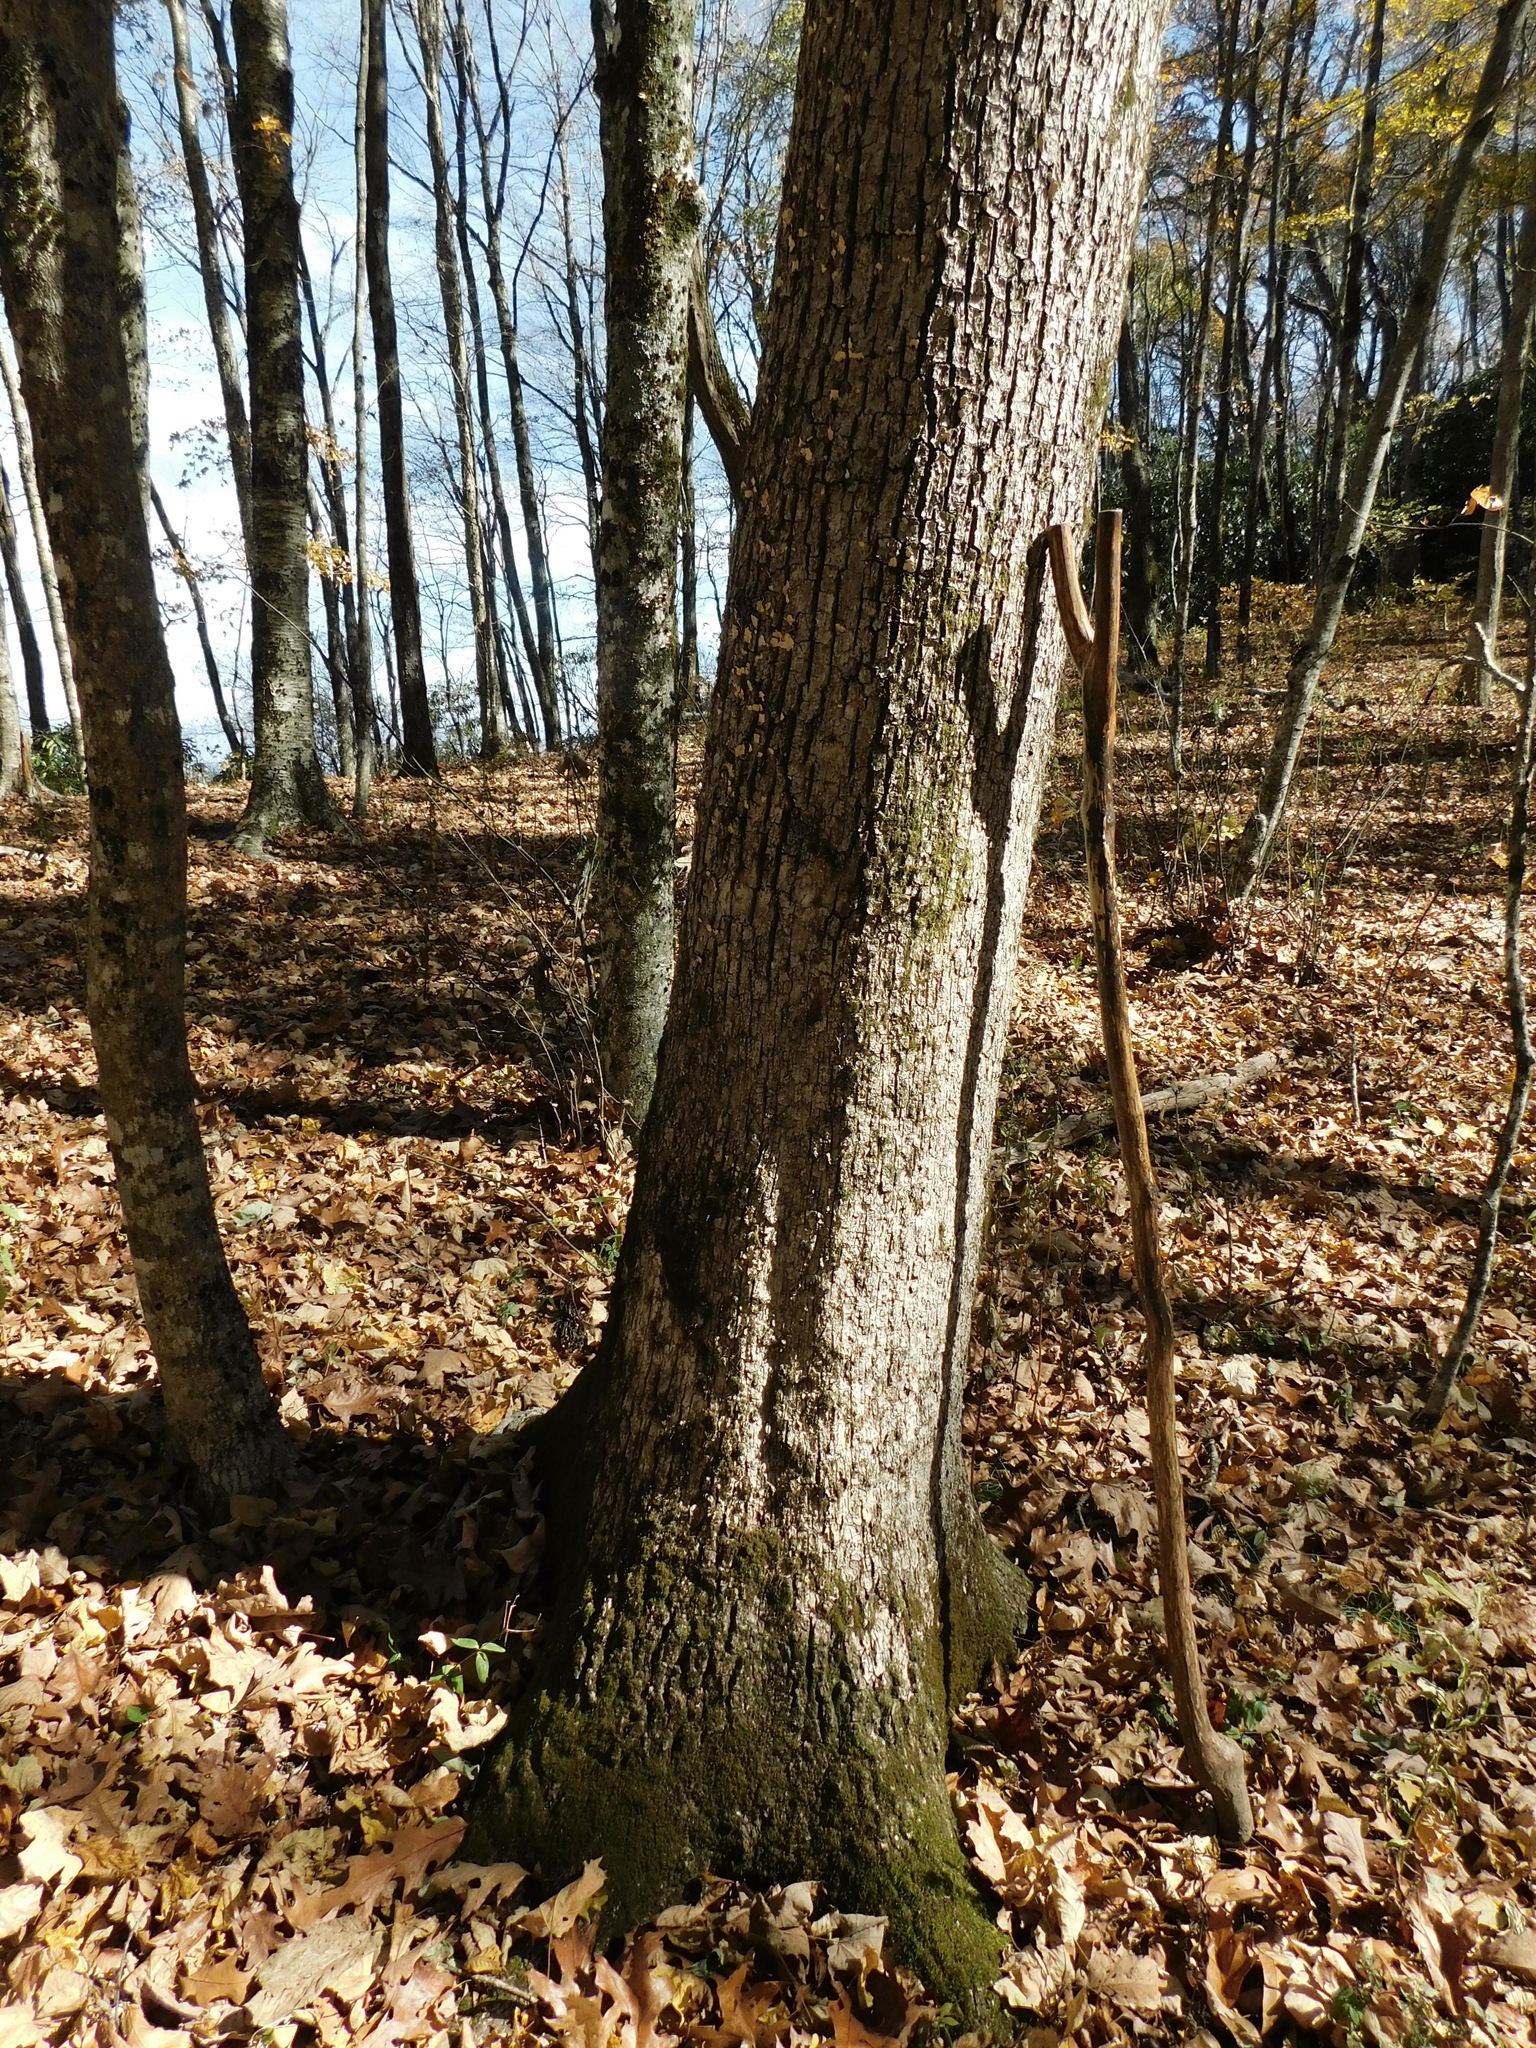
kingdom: Plantae
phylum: Tracheophyta
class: Magnoliopsida
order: Fagales
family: Fagaceae
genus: Quercus
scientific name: Quercus alba
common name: White oak
